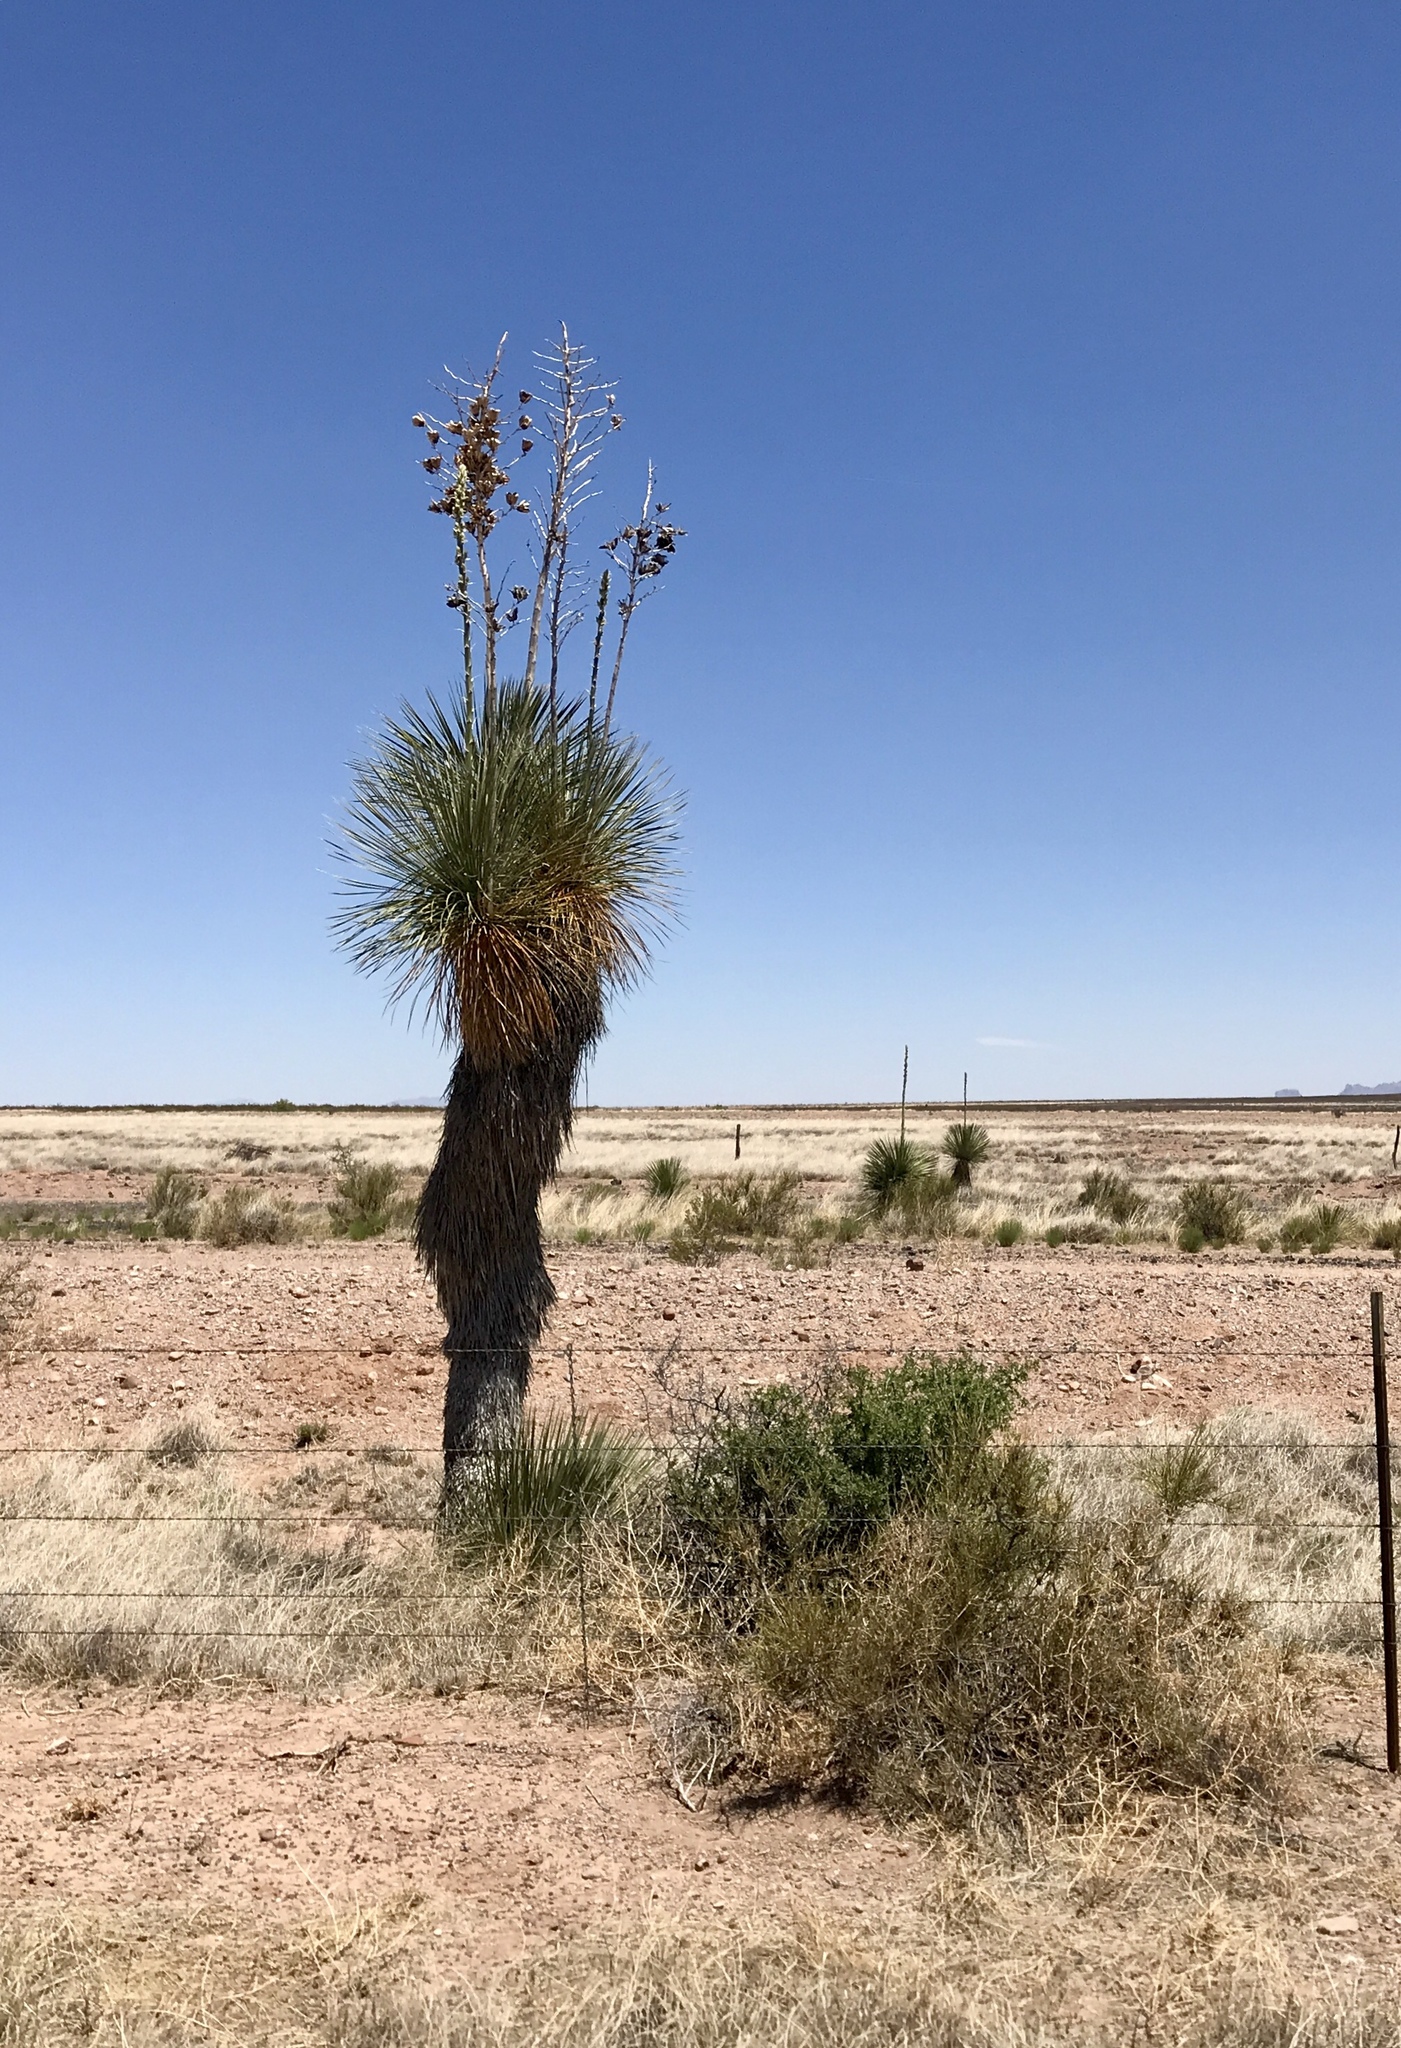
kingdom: Plantae
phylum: Tracheophyta
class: Liliopsida
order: Asparagales
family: Asparagaceae
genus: Yucca
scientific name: Yucca elata
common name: Palmella
